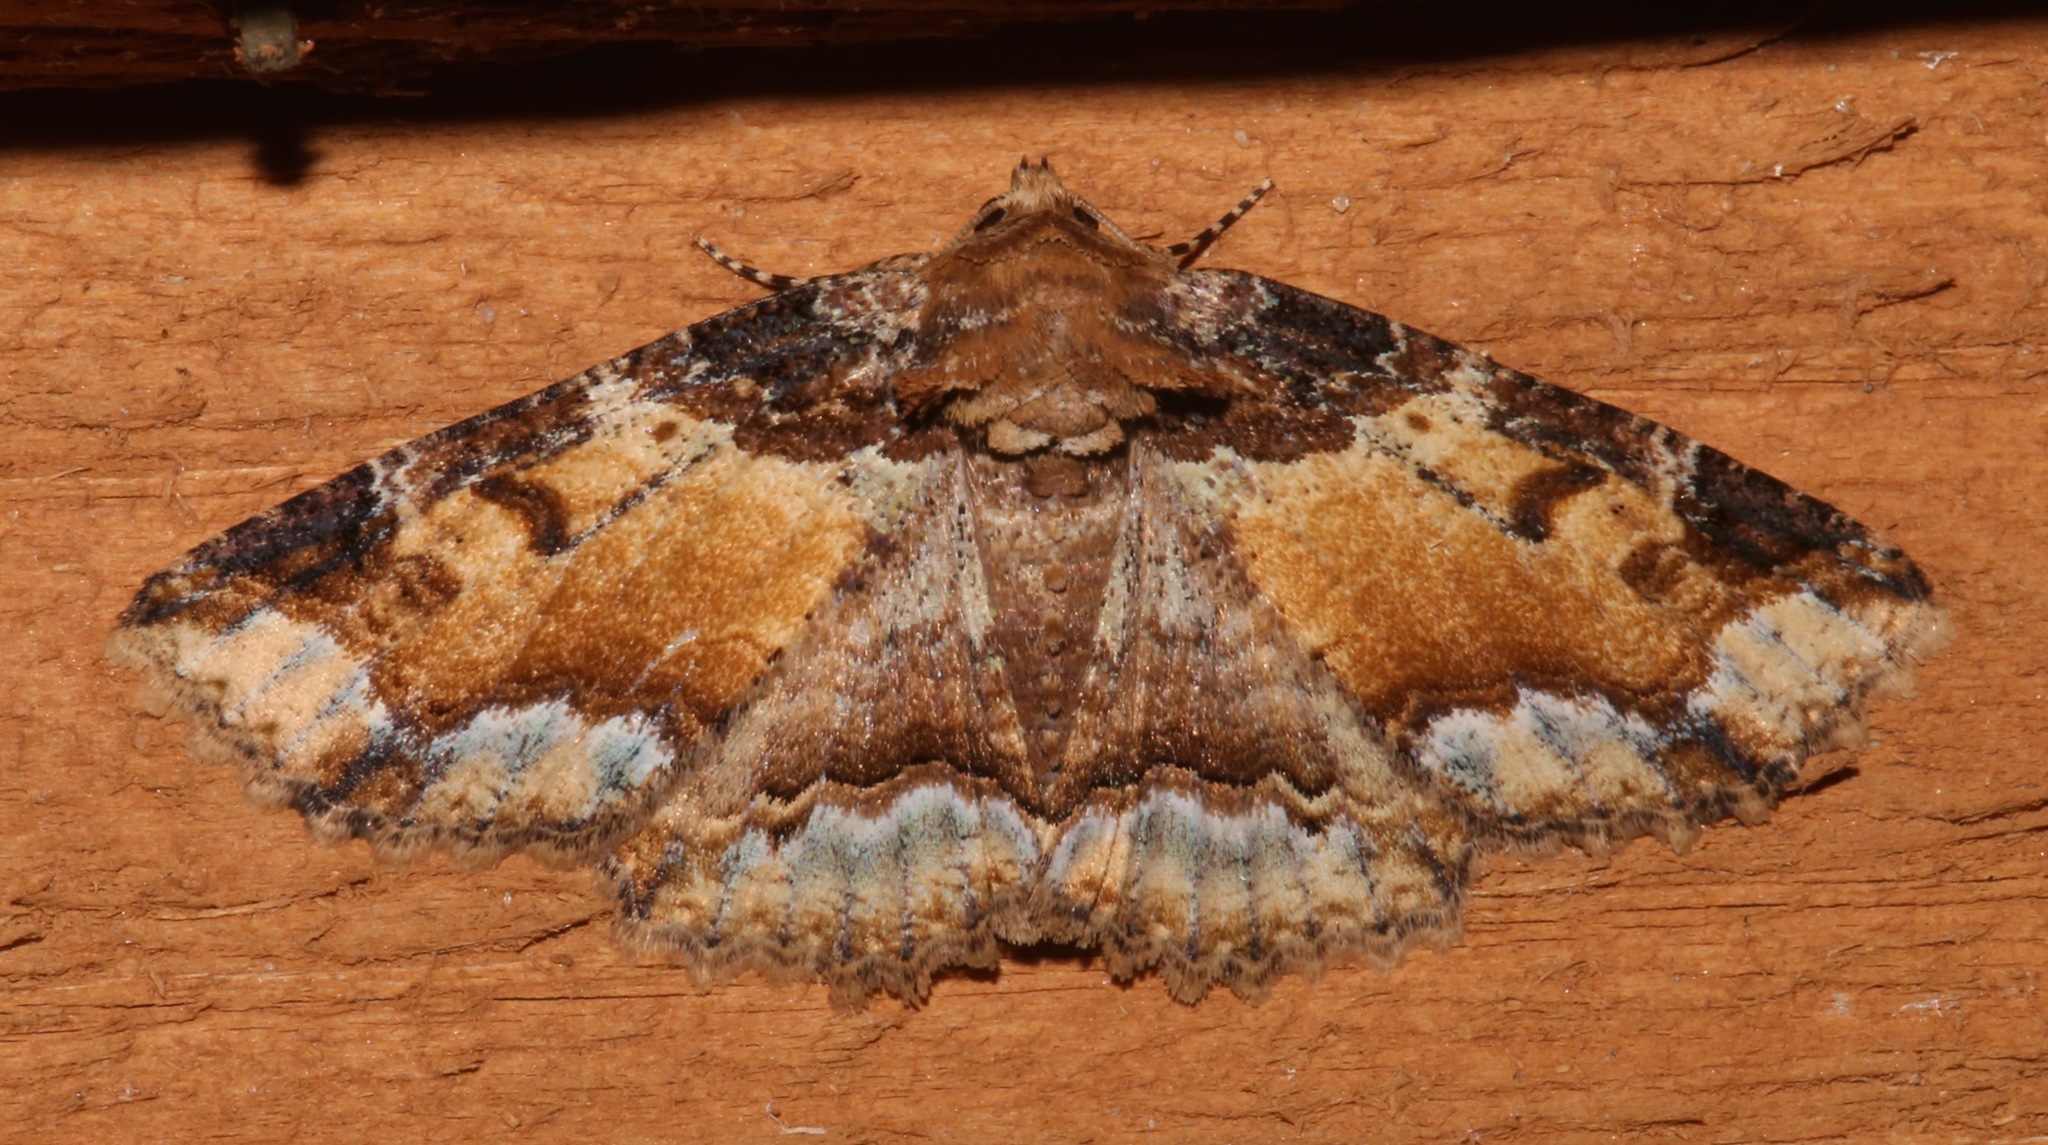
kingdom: Animalia
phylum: Arthropoda
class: Insecta
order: Lepidoptera
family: Erebidae
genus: Zale
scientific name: Zale minerea
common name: Colorful zale moth
